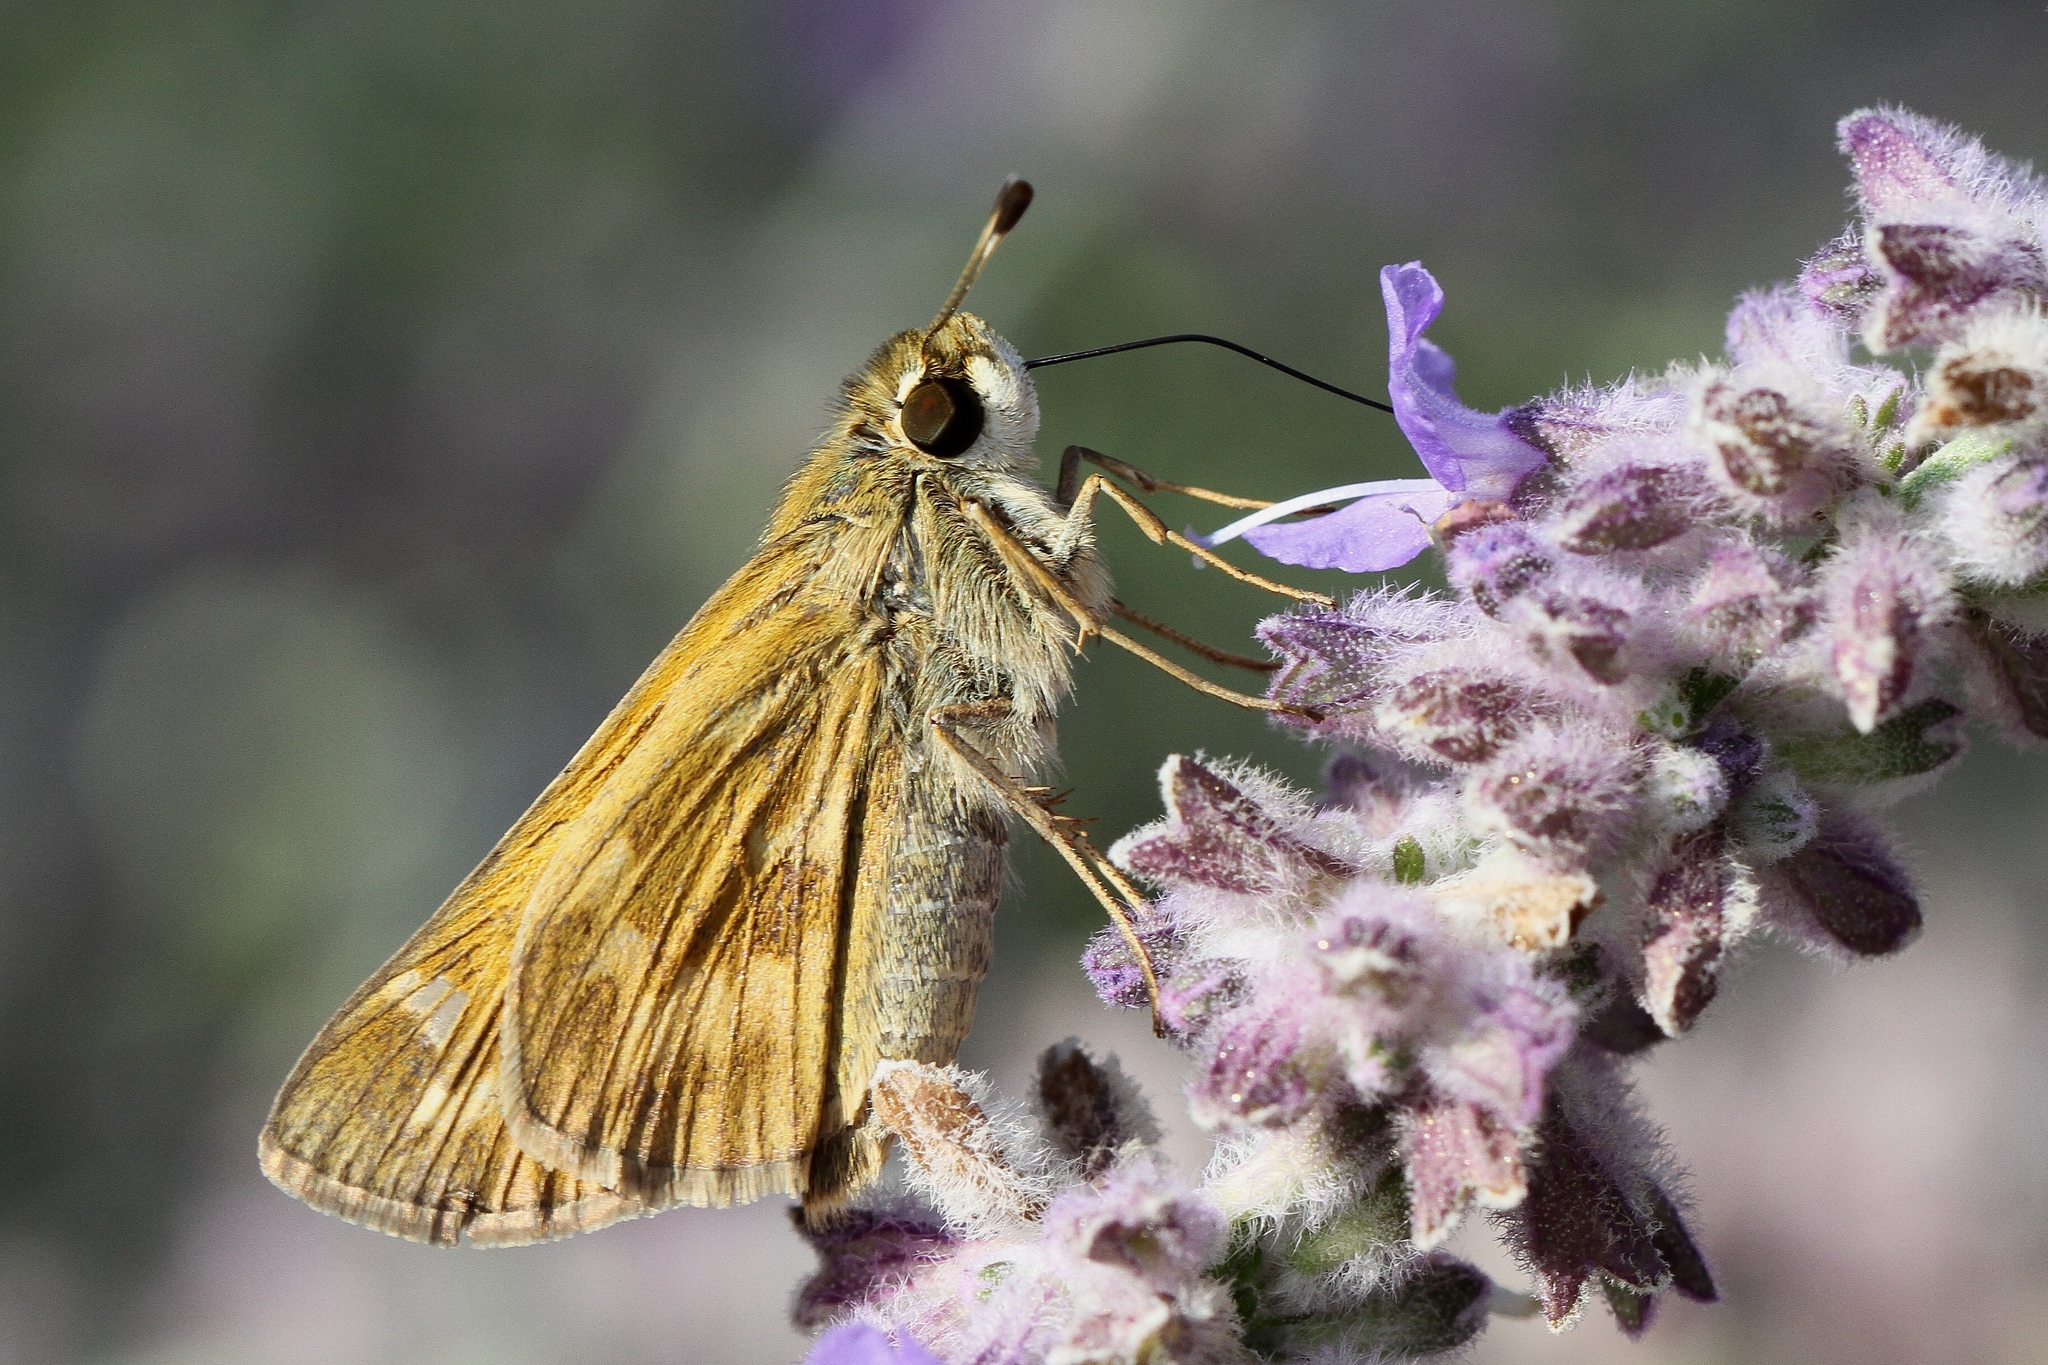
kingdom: Animalia
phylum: Arthropoda
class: Insecta
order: Lepidoptera
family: Hesperiidae
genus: Atalopedes
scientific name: Atalopedes
